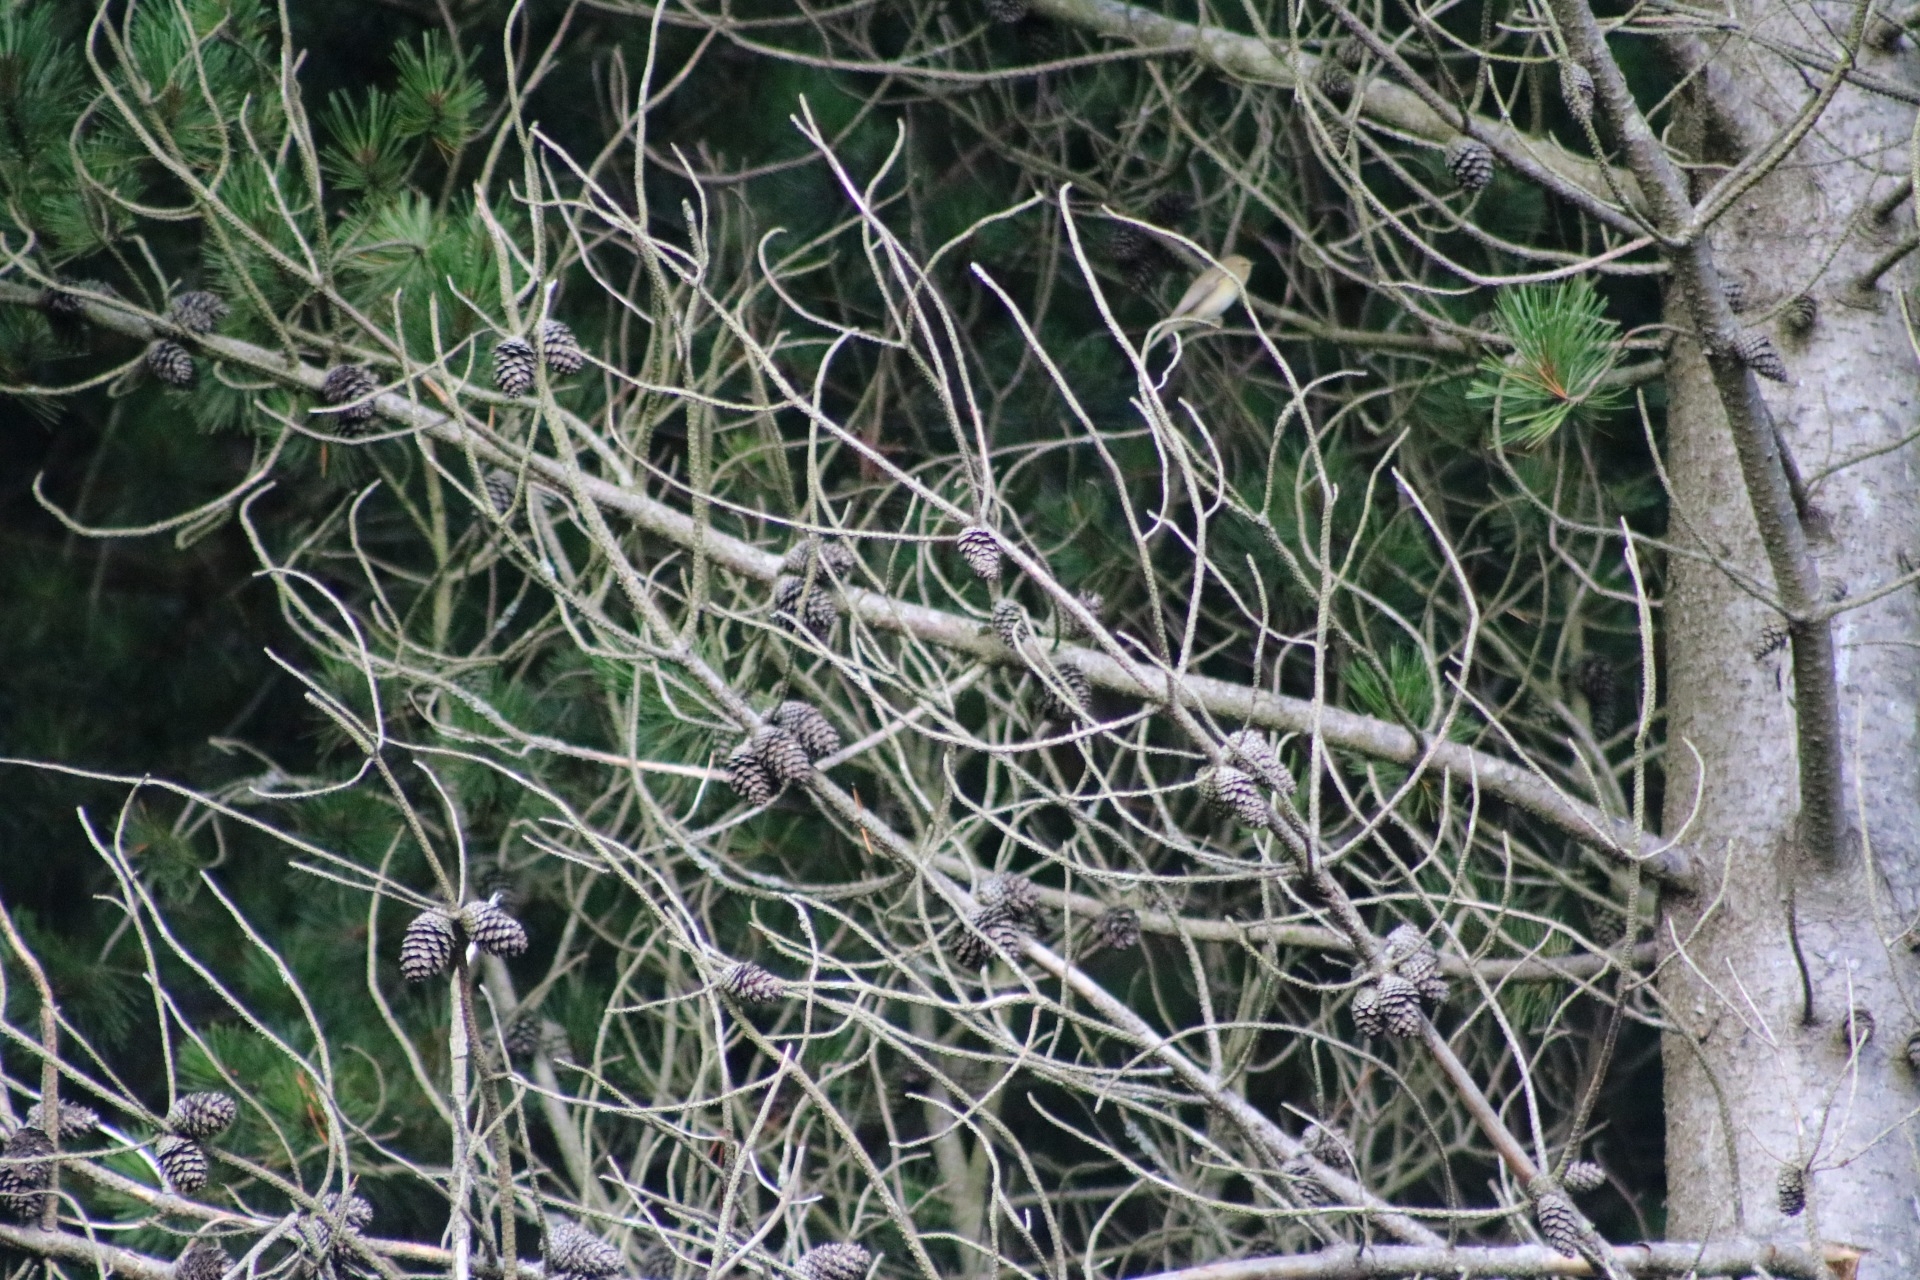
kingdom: Animalia
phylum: Chordata
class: Aves
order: Passeriformes
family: Phylloscopidae
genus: Phylloscopus
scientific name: Phylloscopus collybita
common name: Common chiffchaff
